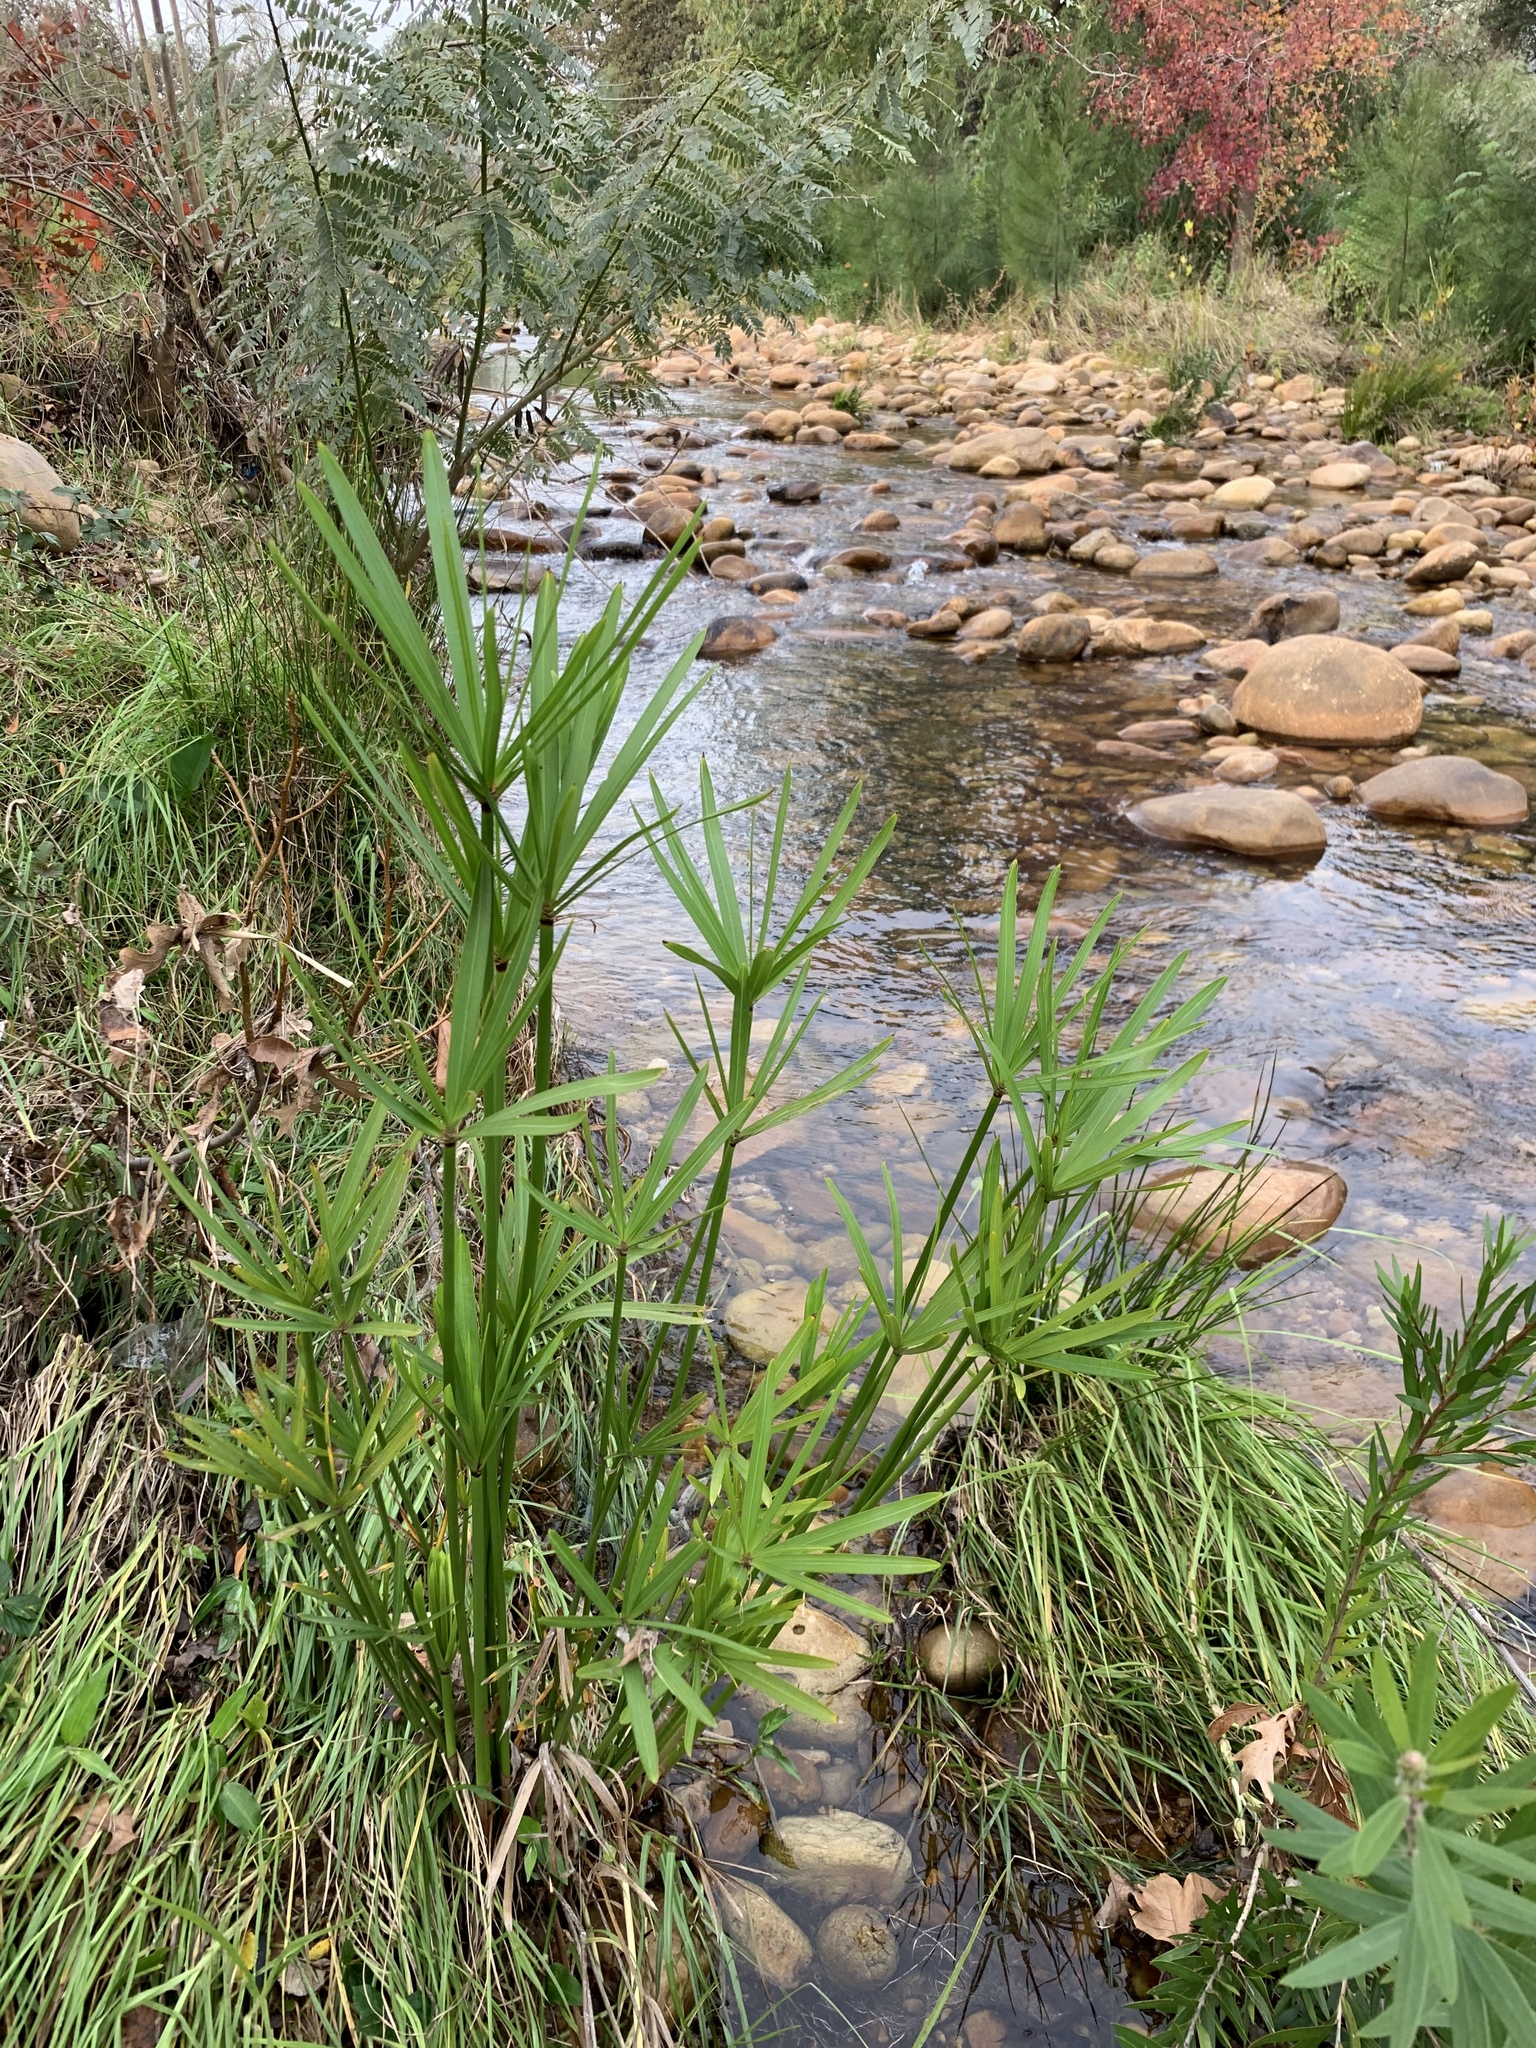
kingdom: Plantae
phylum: Tracheophyta
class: Liliopsida
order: Poales
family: Cyperaceae
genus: Cyperus
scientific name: Cyperus textilis
